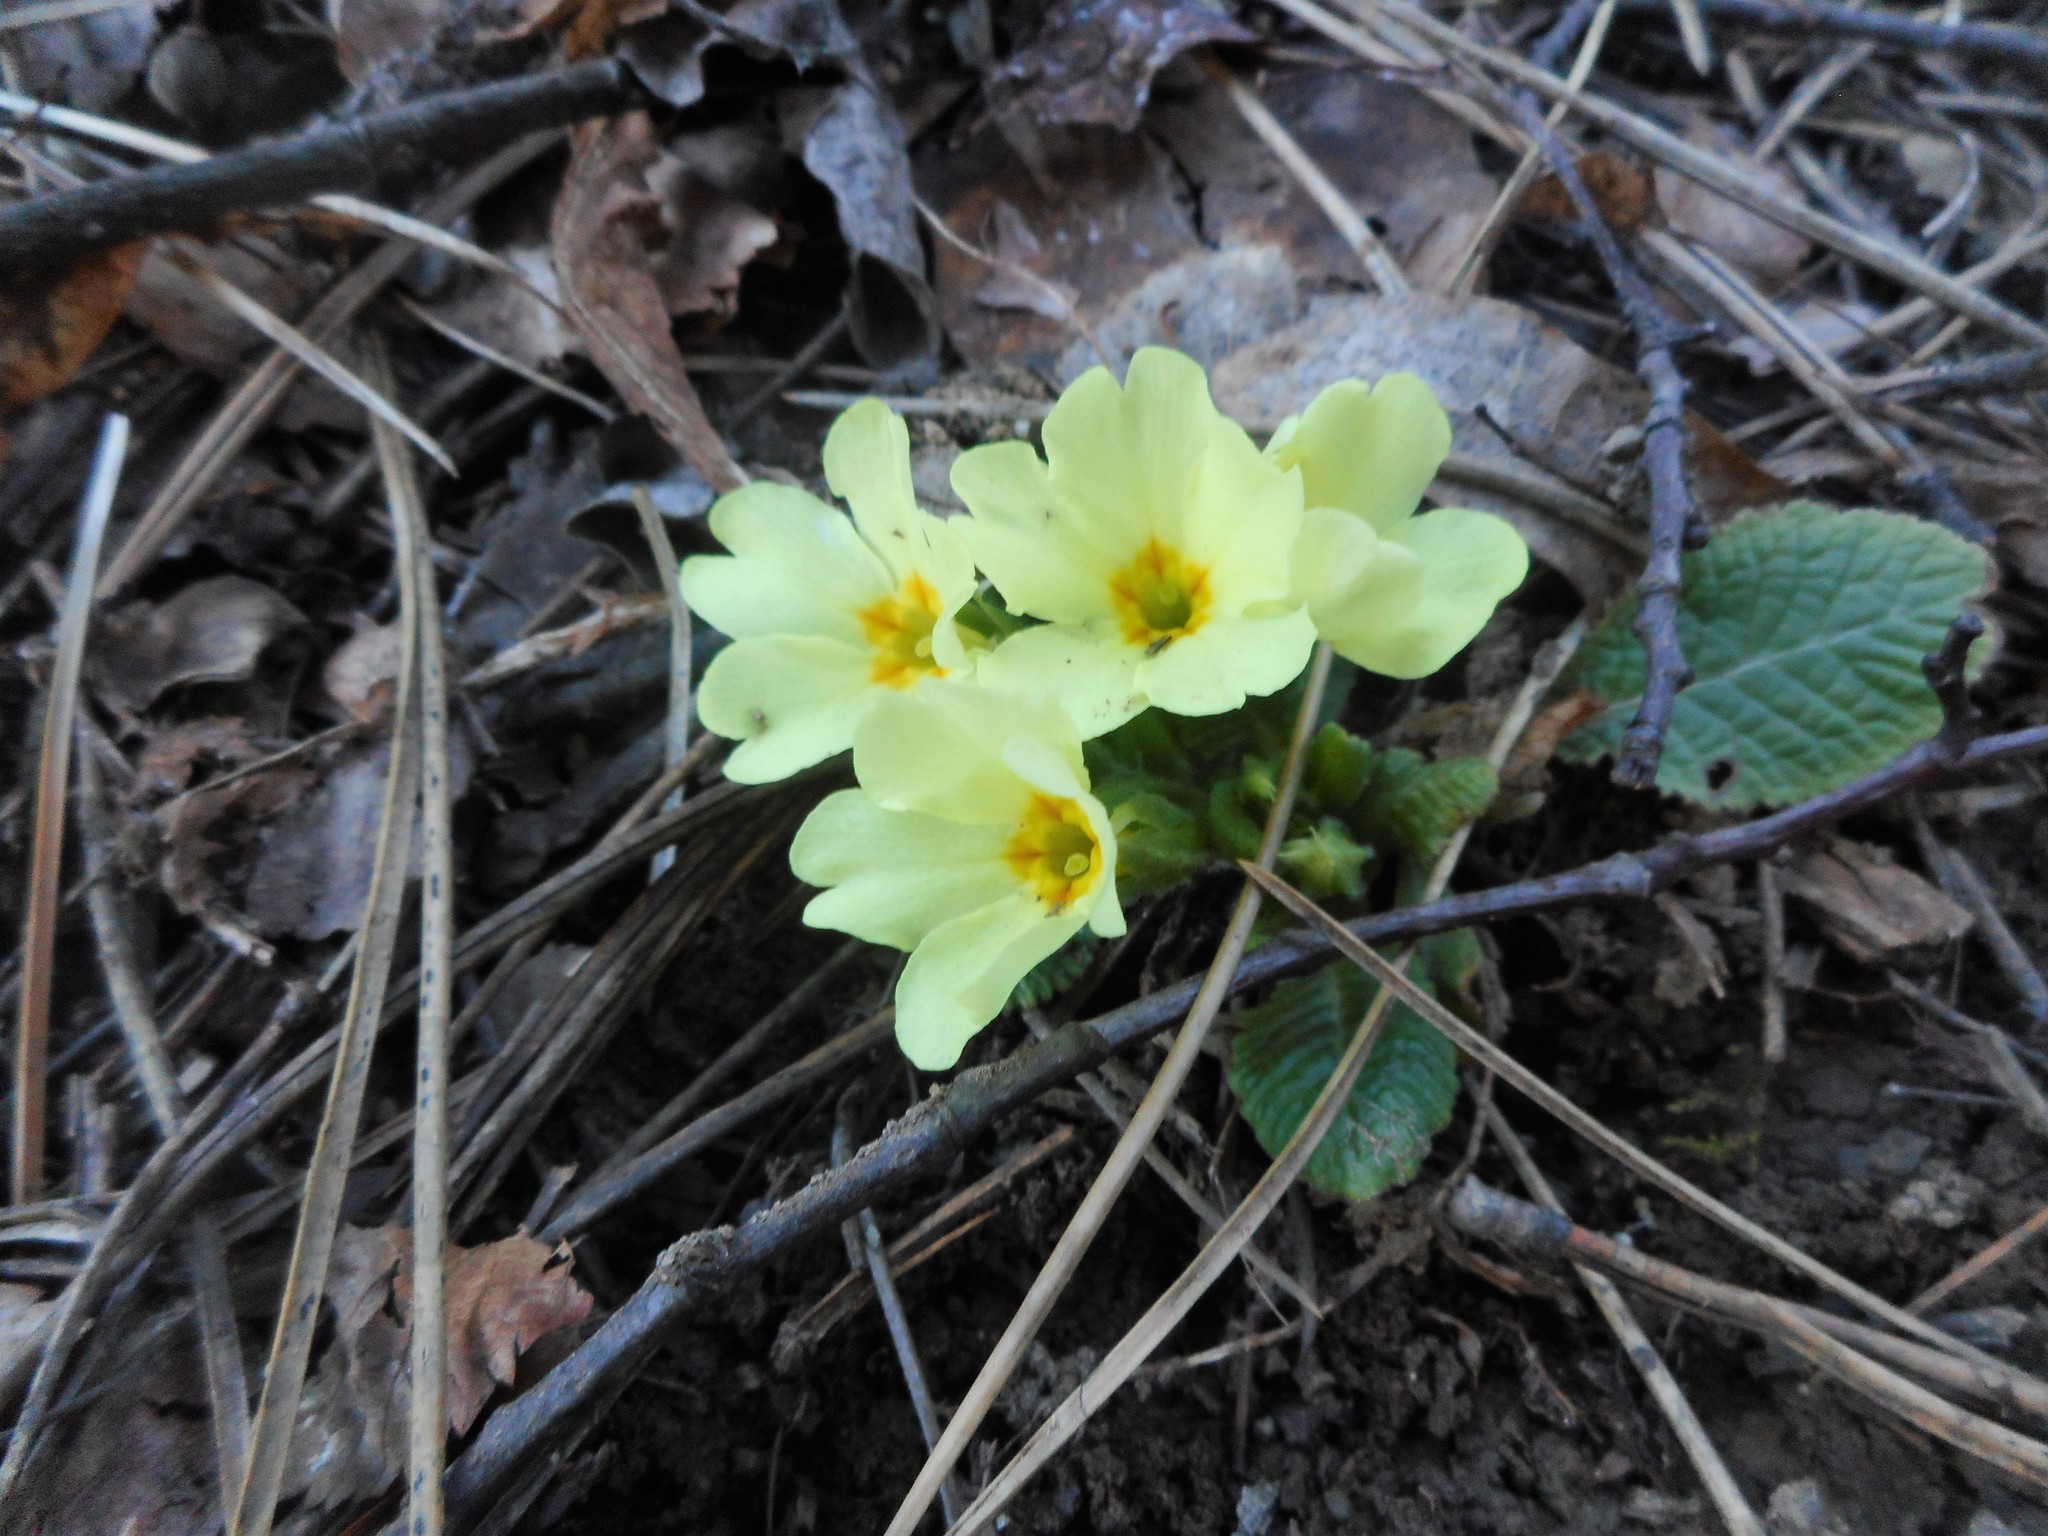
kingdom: Plantae
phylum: Tracheophyta
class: Magnoliopsida
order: Ericales
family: Primulaceae
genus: Primula
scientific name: Primula vulgaris
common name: Primrose
